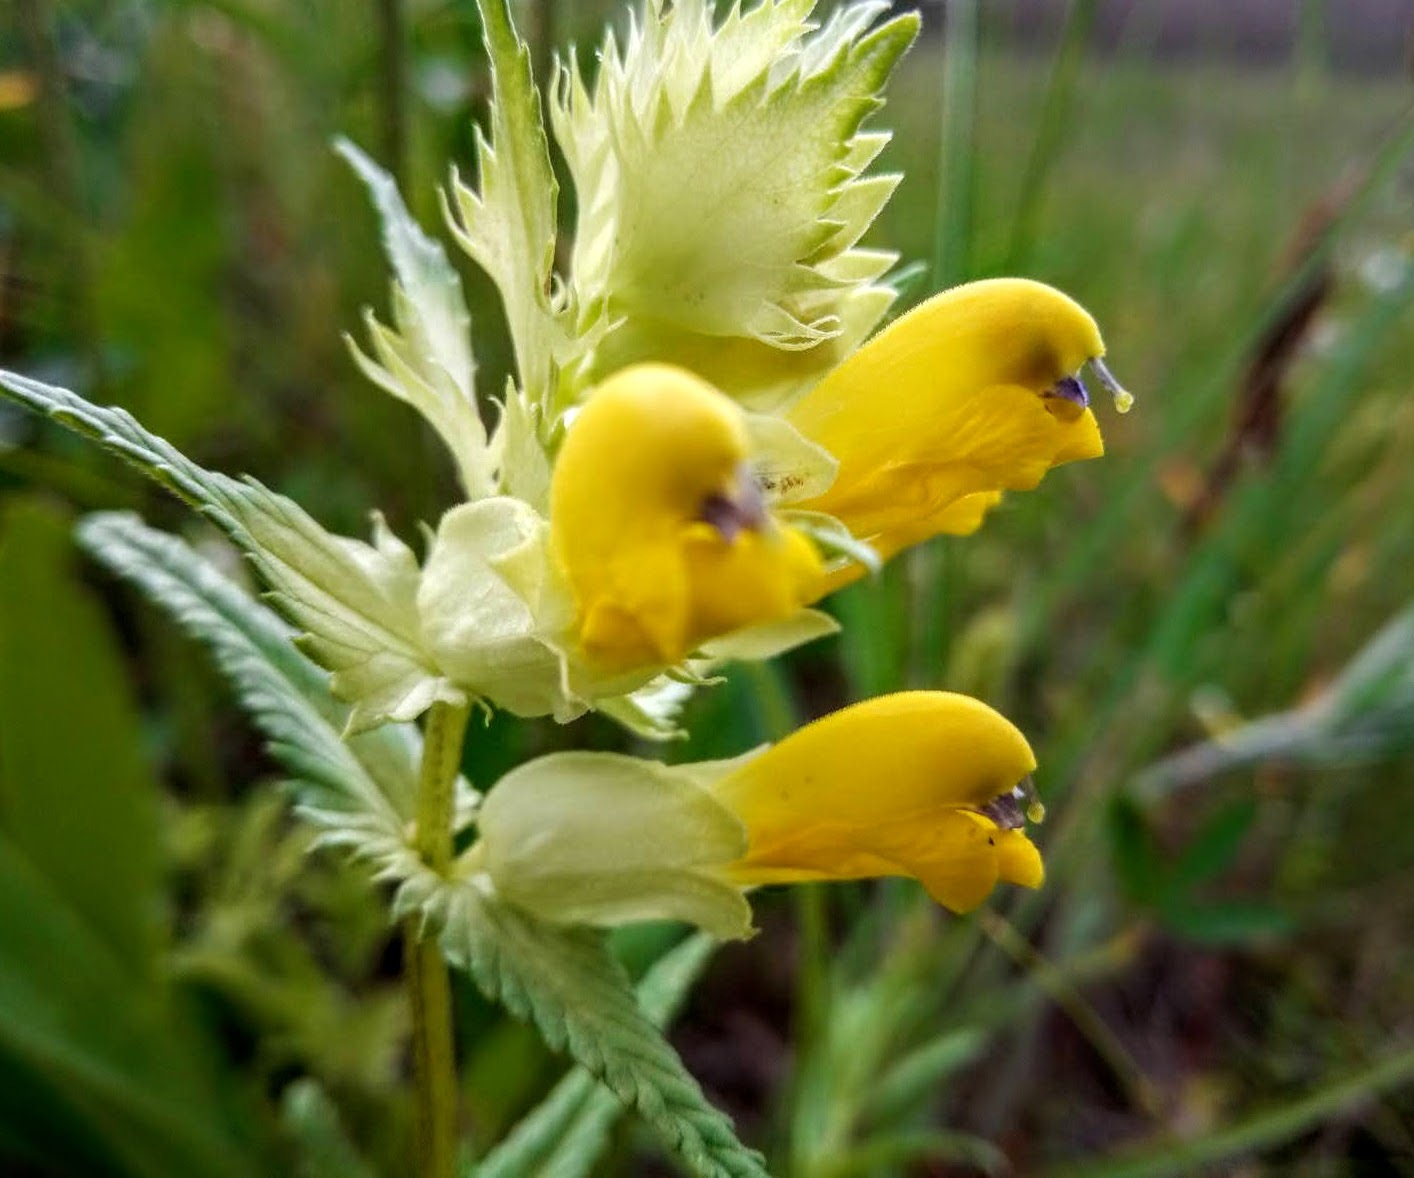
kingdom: Plantae
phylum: Tracheophyta
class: Magnoliopsida
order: Lamiales
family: Orobanchaceae
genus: Rhinanthus
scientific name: Rhinanthus serotinus
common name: Late-flowering yellow rattle
